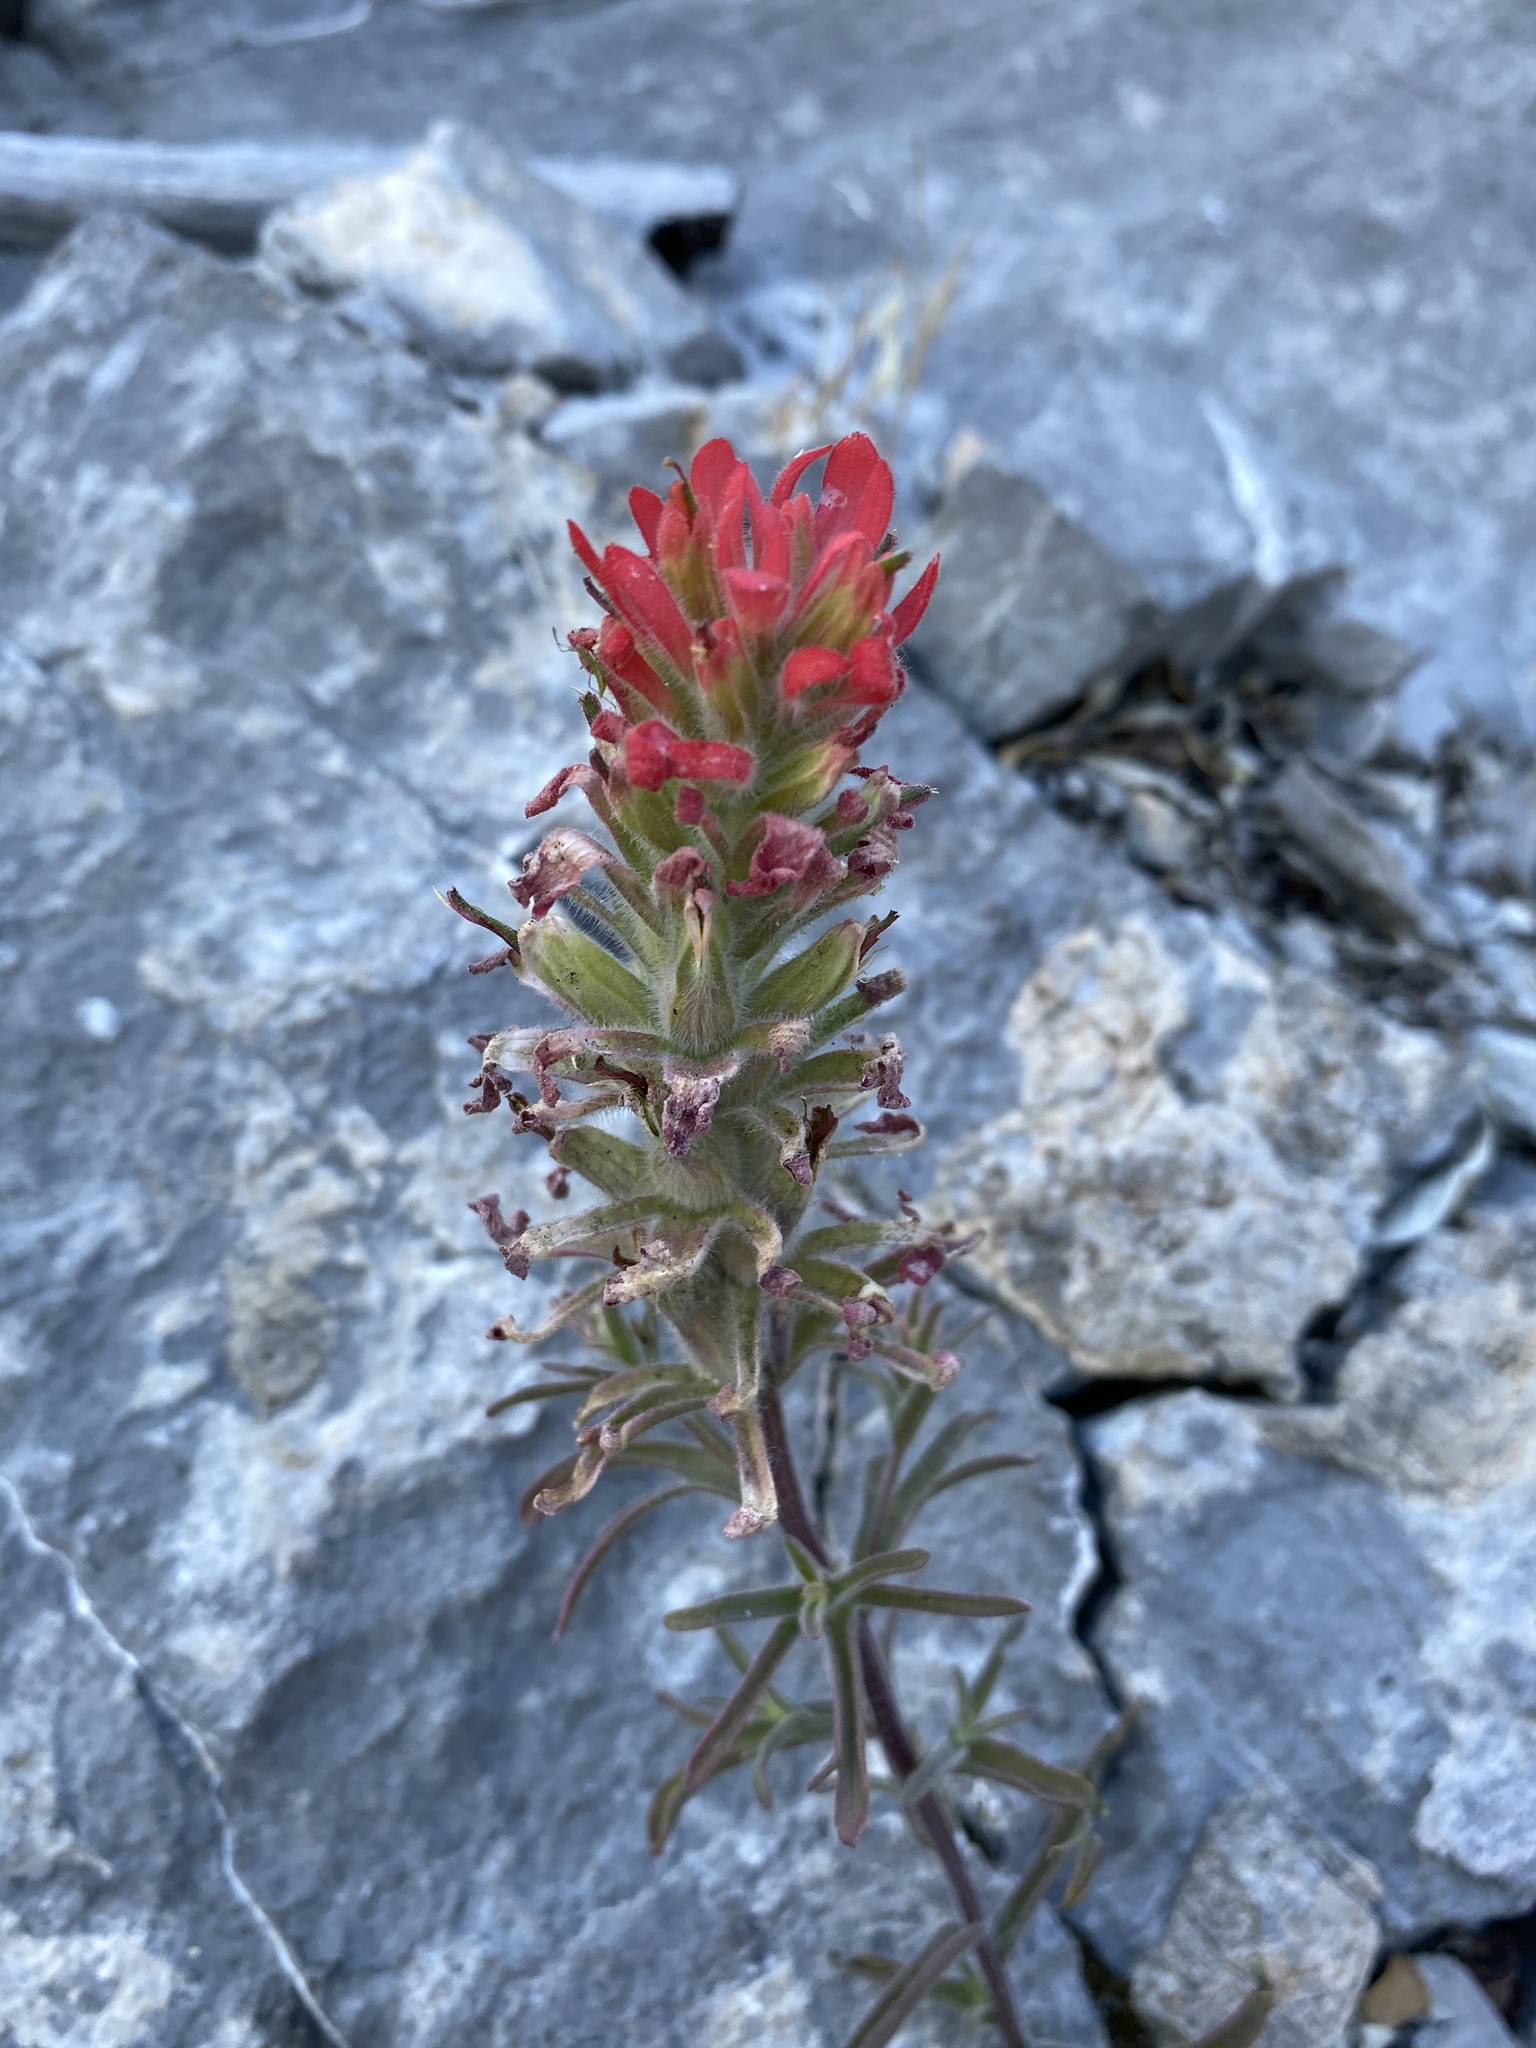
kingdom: Plantae
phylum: Tracheophyta
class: Magnoliopsida
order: Lamiales
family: Orobanchaceae
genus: Castilleja
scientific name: Castilleja chromosa
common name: Desert paintbrush
